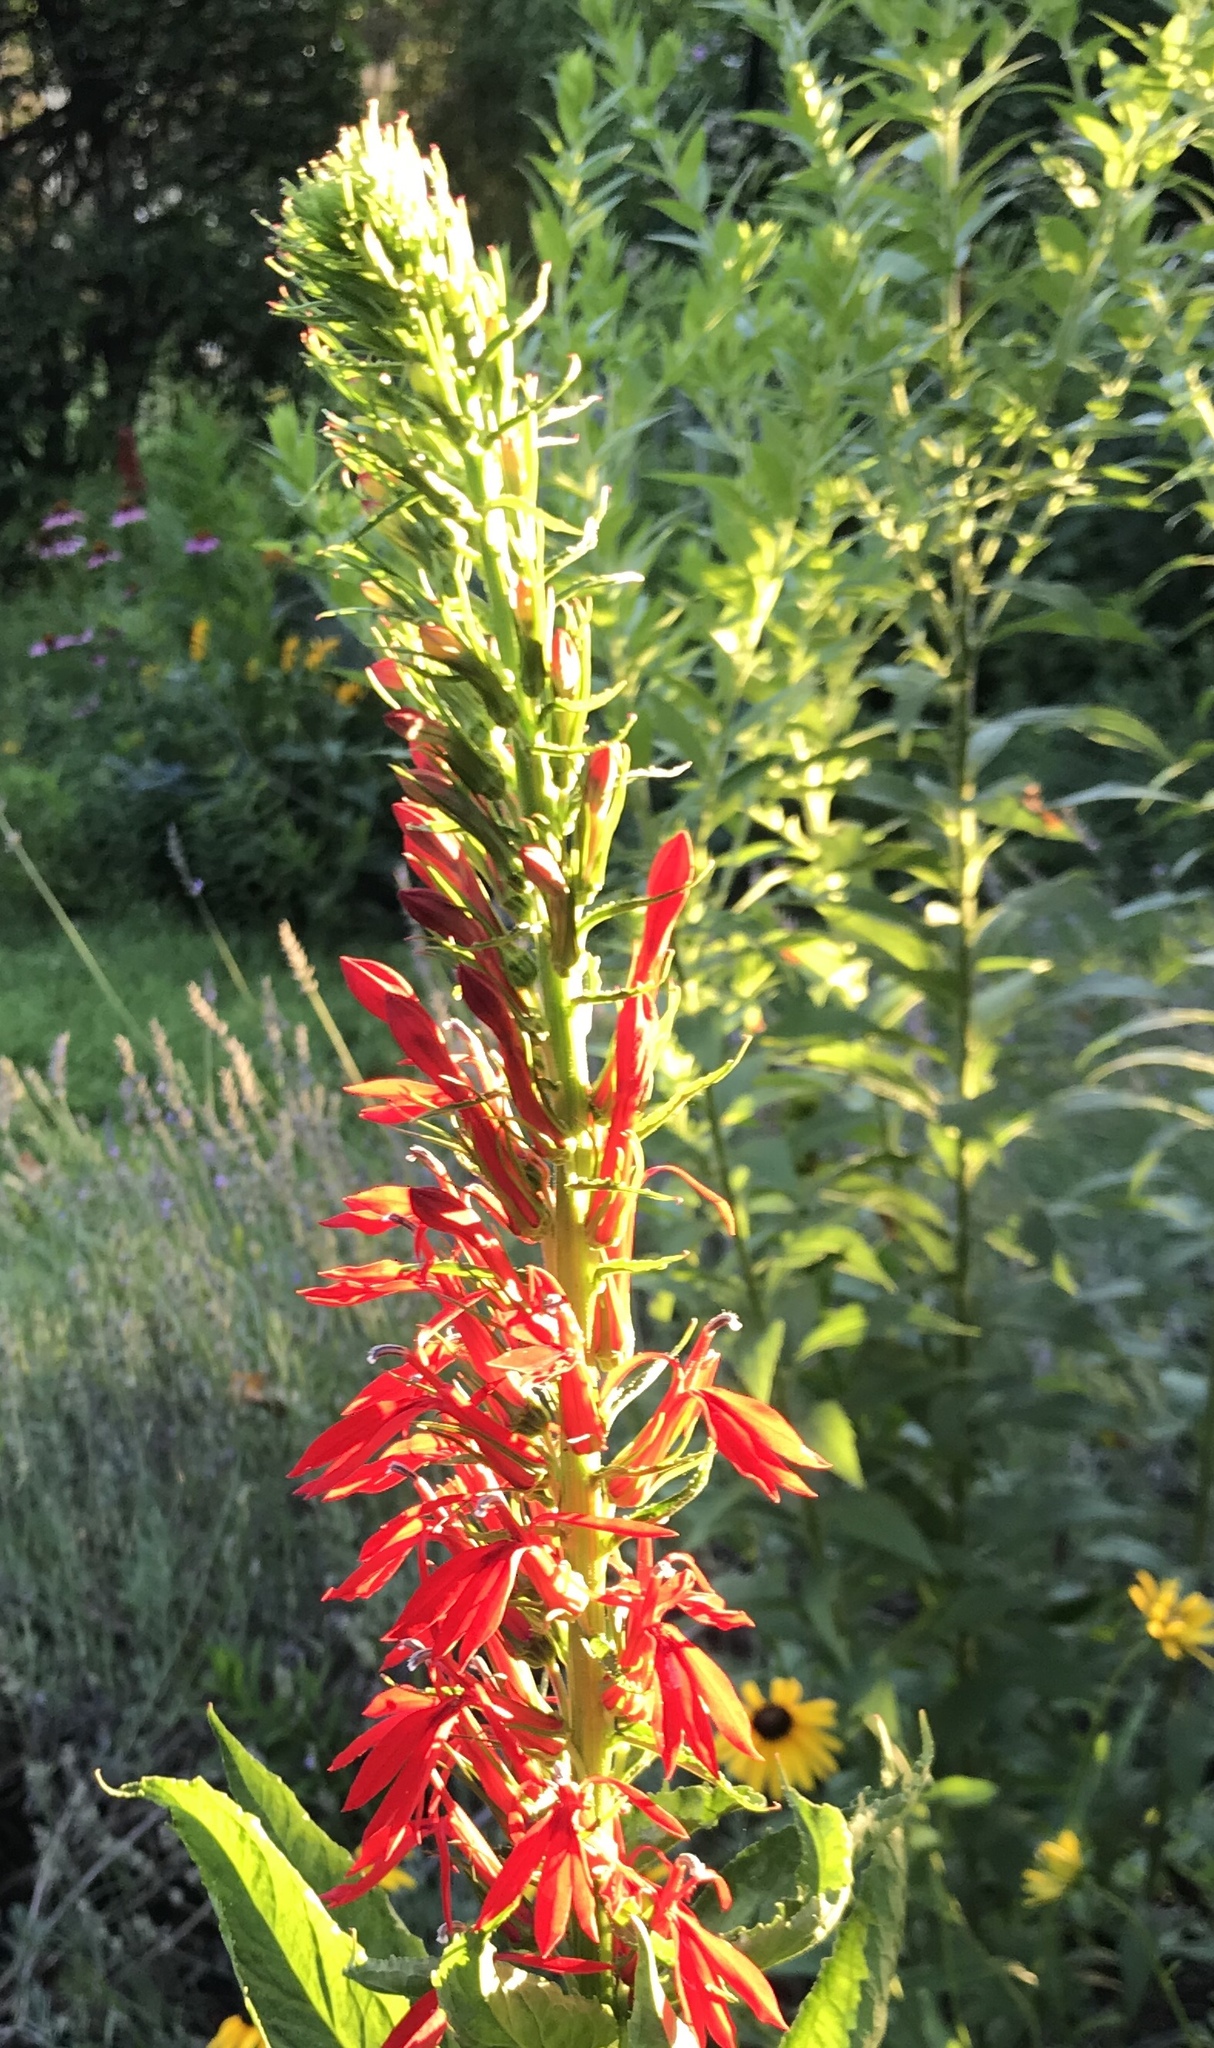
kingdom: Plantae
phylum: Tracheophyta
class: Magnoliopsida
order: Asterales
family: Campanulaceae
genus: Lobelia
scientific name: Lobelia cardinalis
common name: Cardinal flower
